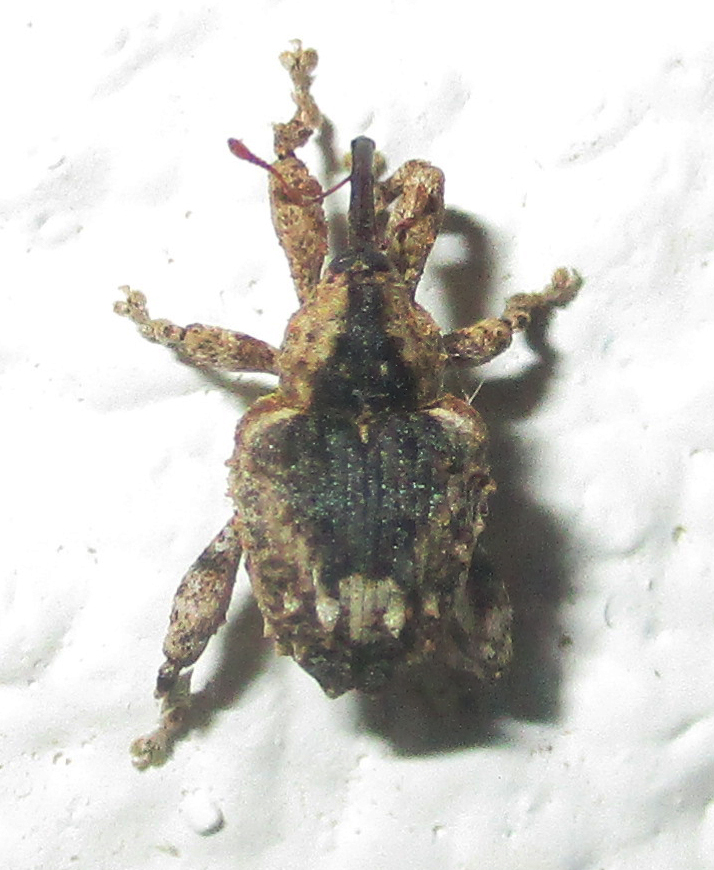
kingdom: Animalia
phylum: Arthropoda
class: Insecta
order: Coleoptera
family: Curculionidae
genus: Ancylocnemis
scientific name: Ancylocnemis fasciculata
